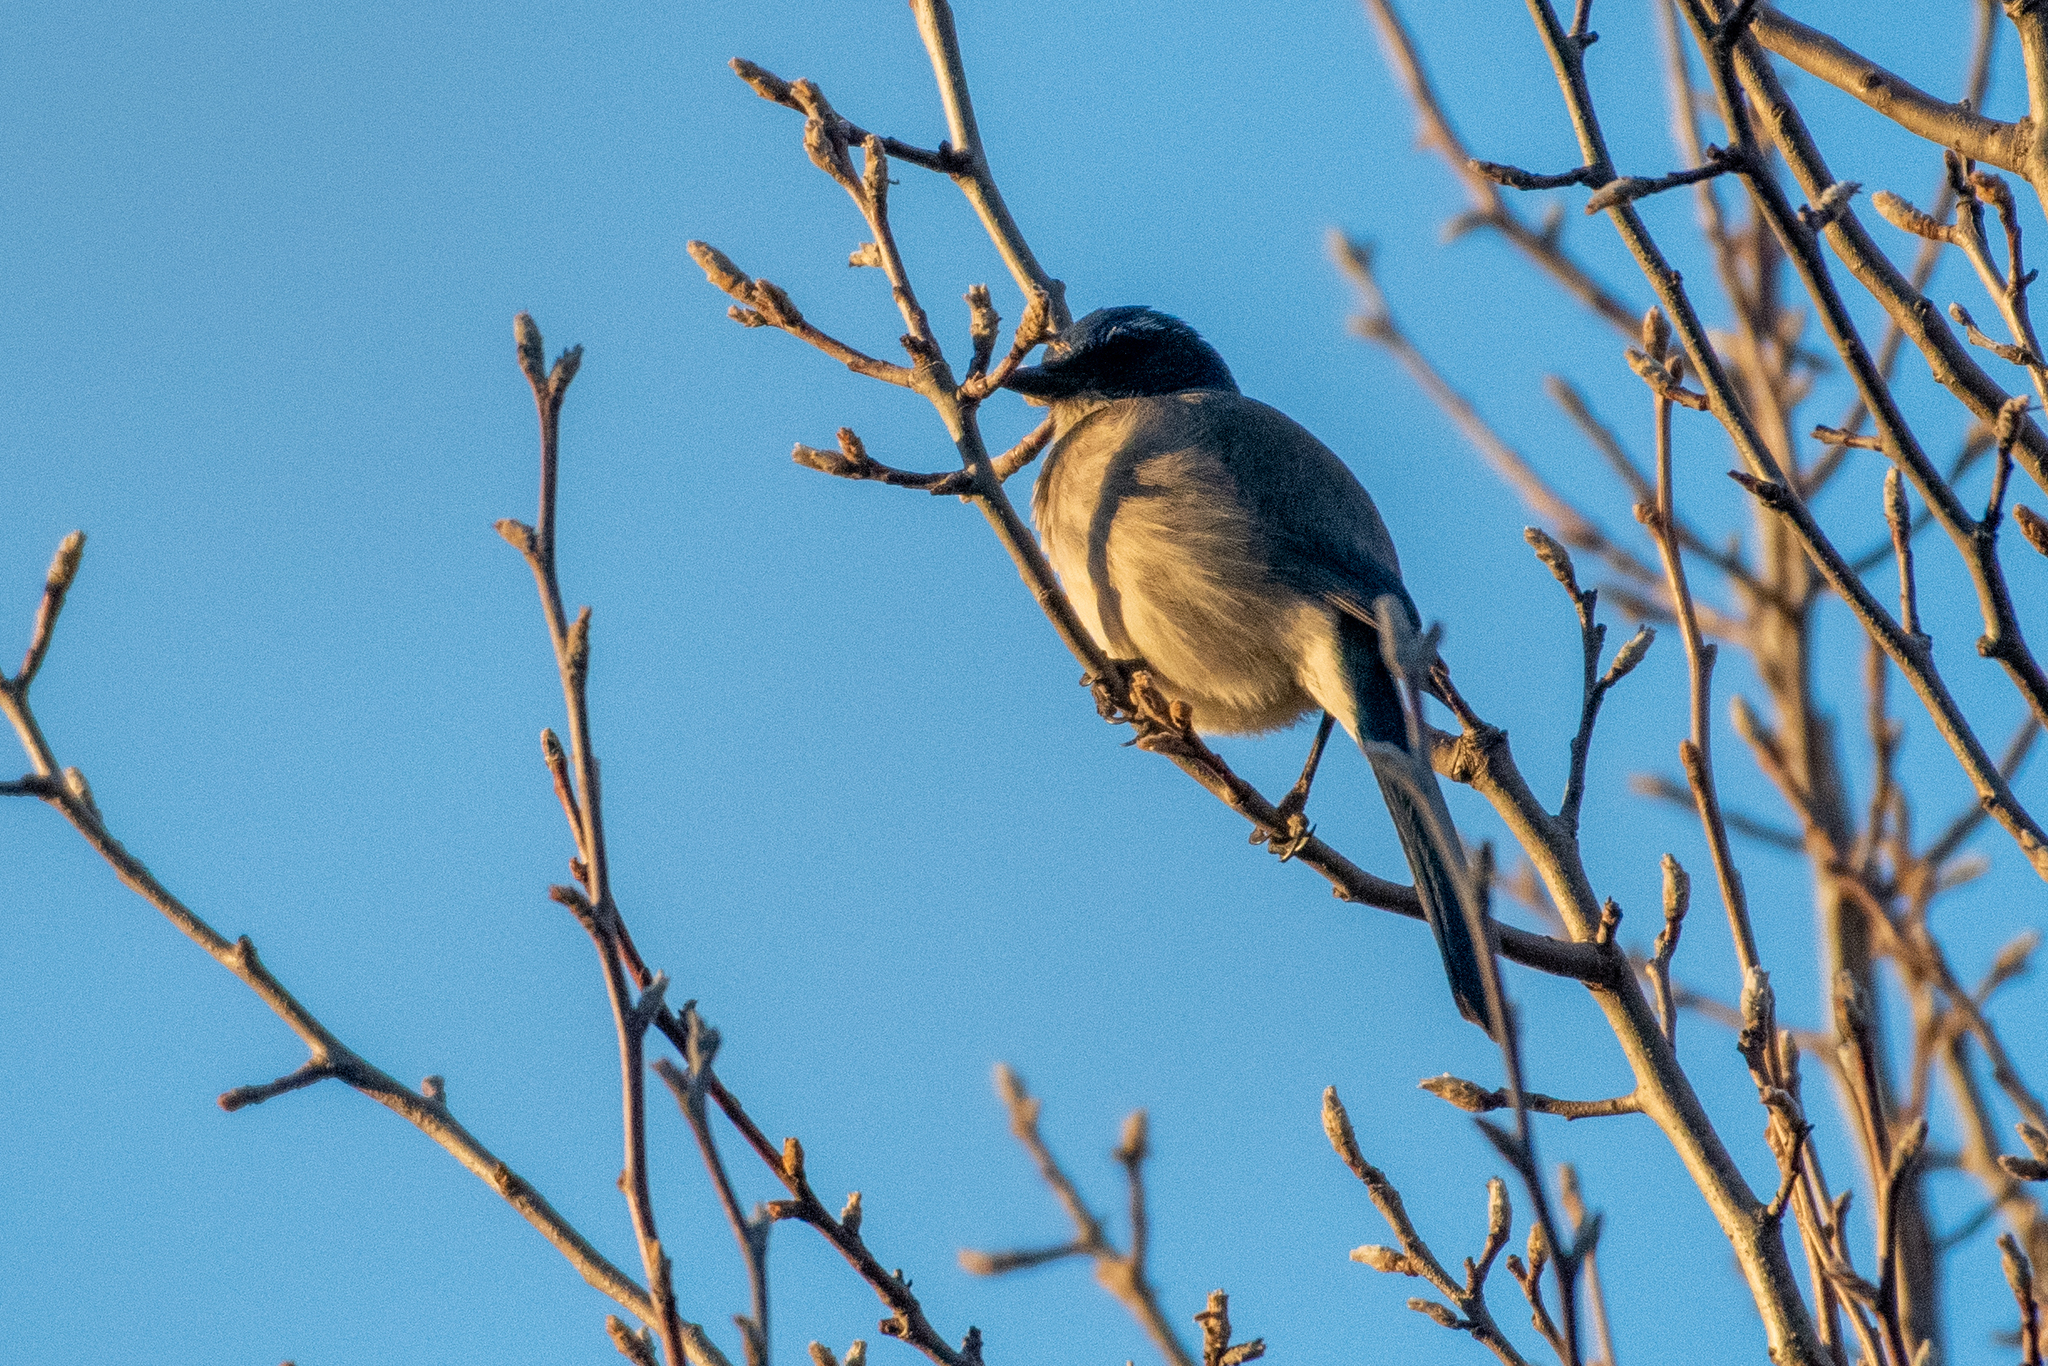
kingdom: Animalia
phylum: Chordata
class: Aves
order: Passeriformes
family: Corvidae
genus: Aphelocoma
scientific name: Aphelocoma californica
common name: California scrub-jay
